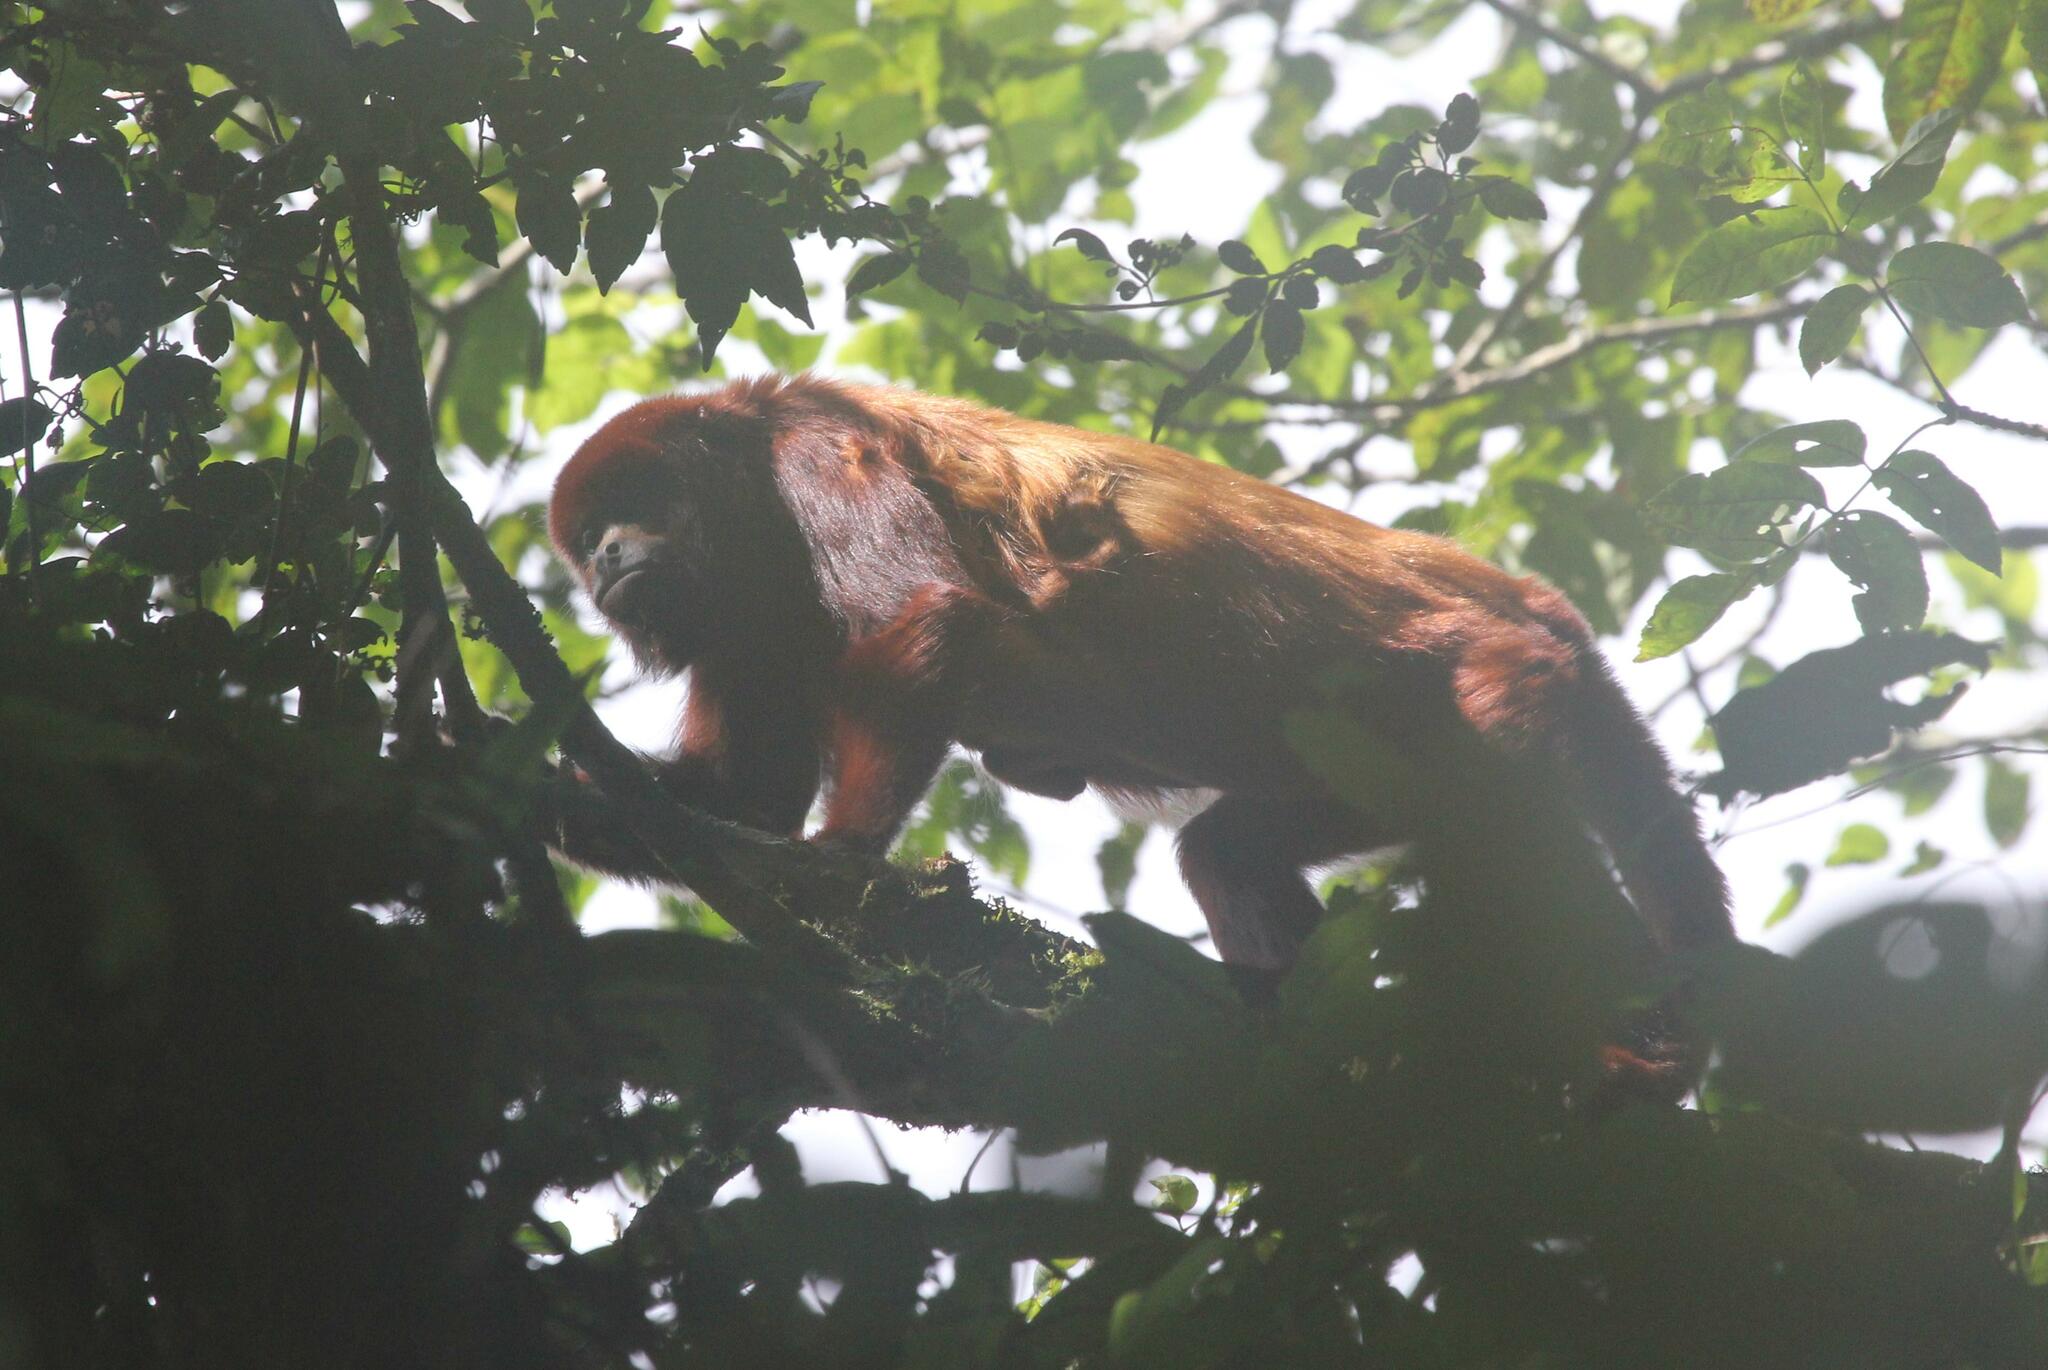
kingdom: Animalia
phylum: Chordata
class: Mammalia
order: Primates
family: Atelidae
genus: Alouatta
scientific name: Alouatta seniculus
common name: Venezuelan red howler
